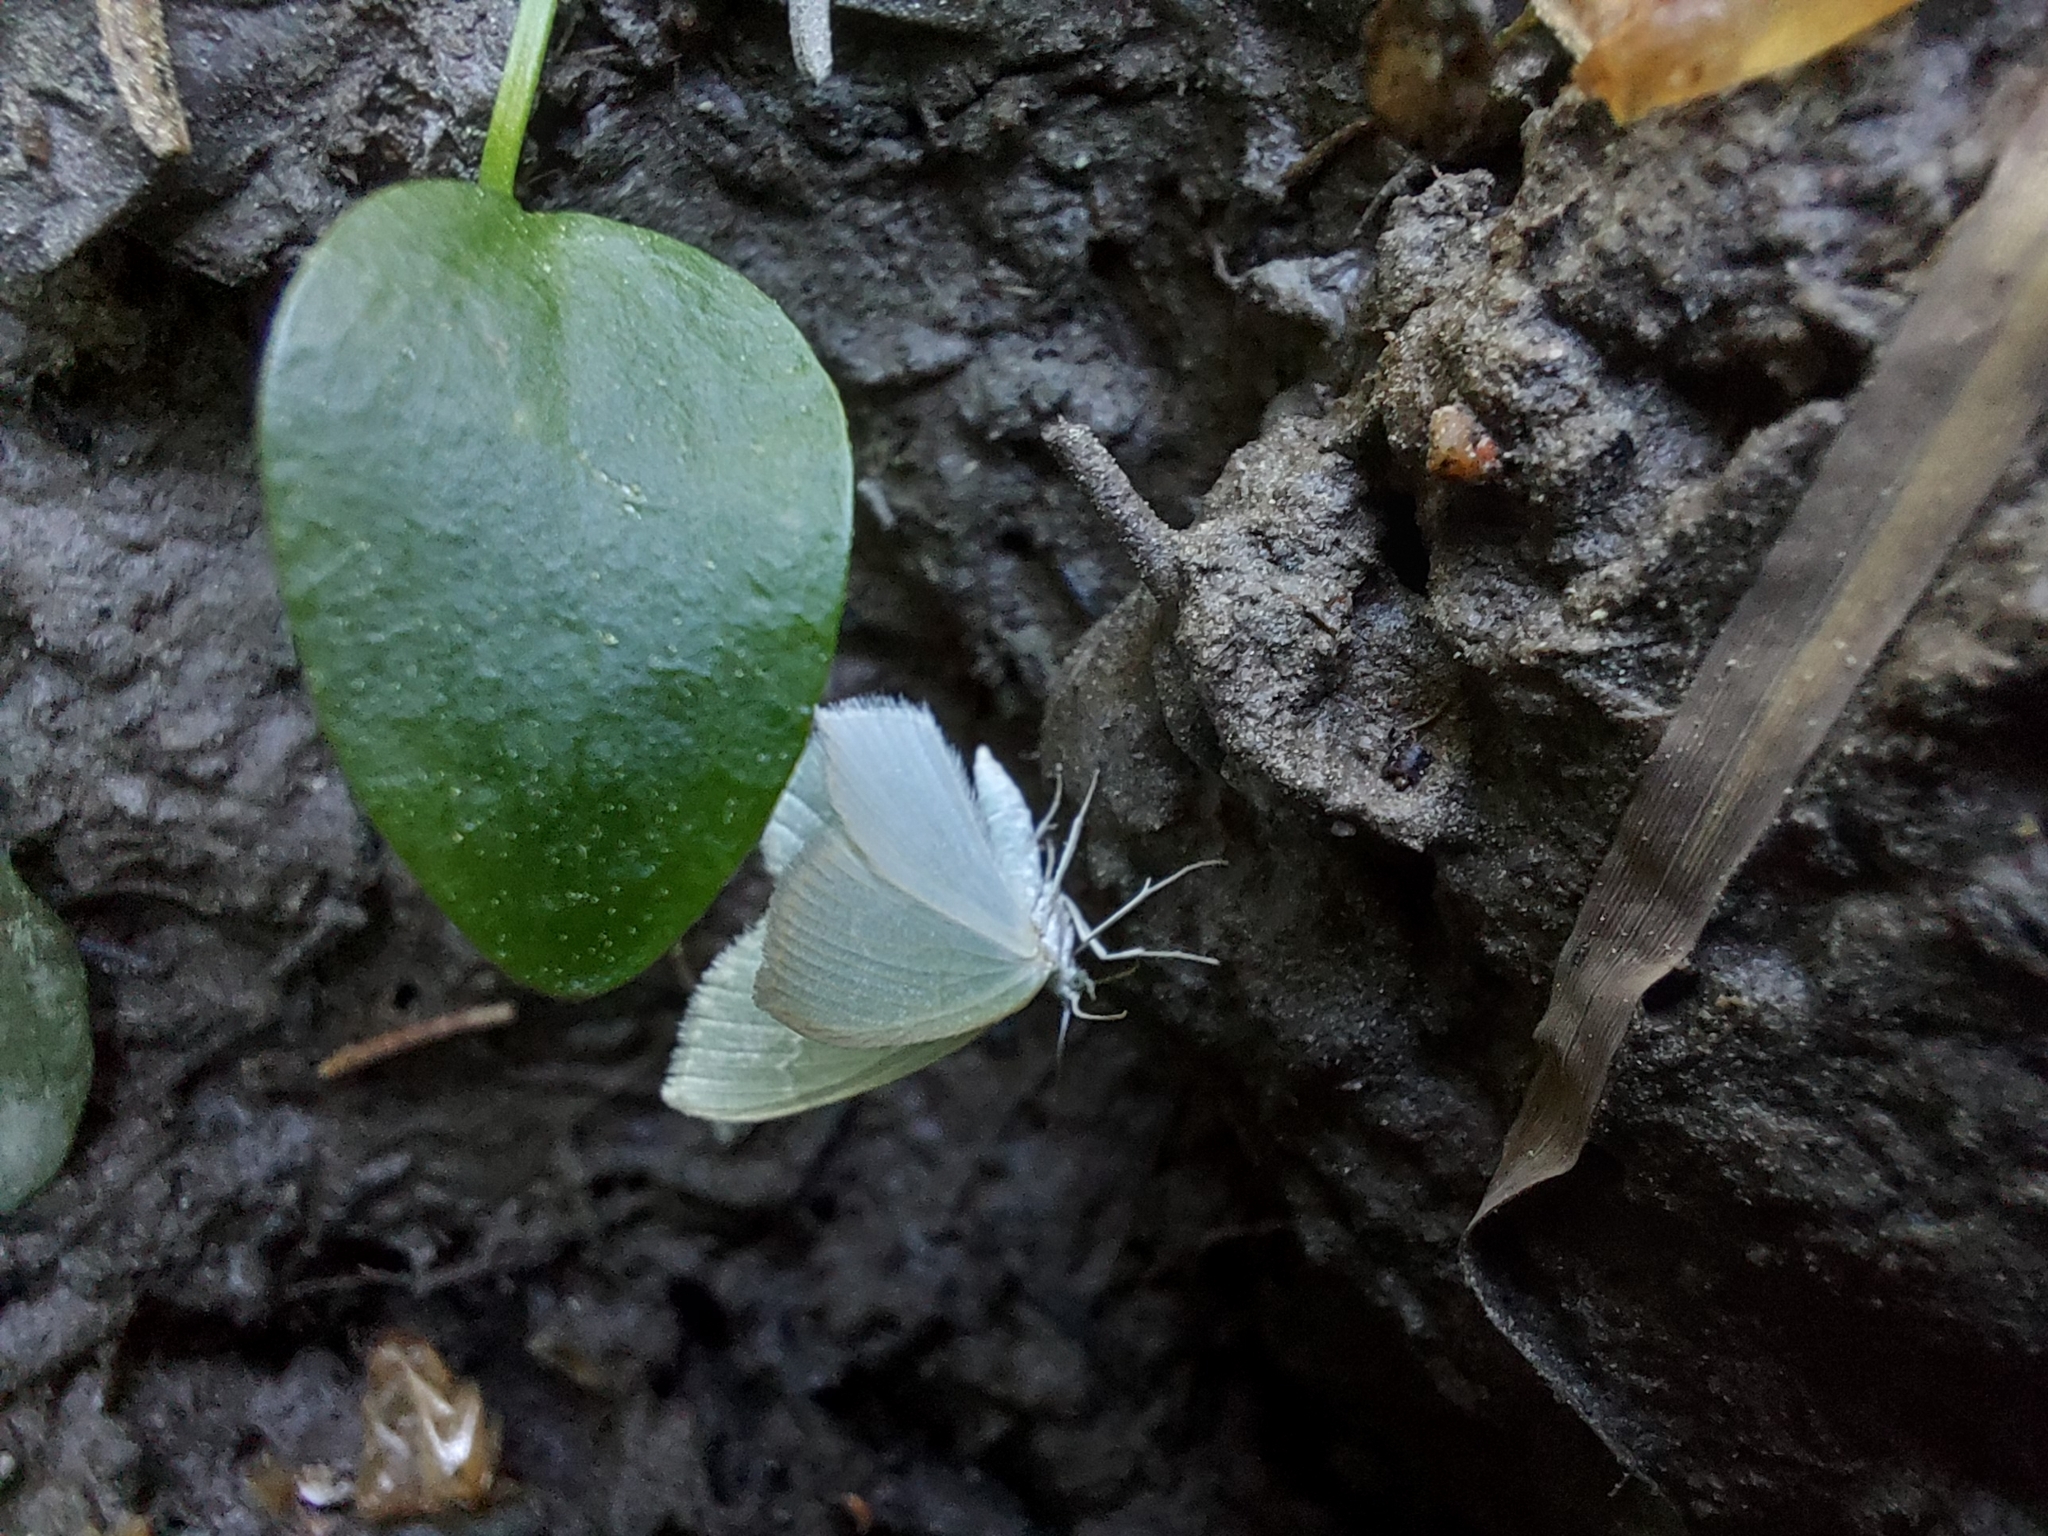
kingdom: Animalia
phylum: Arthropoda
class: Insecta
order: Lepidoptera
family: Geometridae
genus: Jodis
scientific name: Jodis putata
